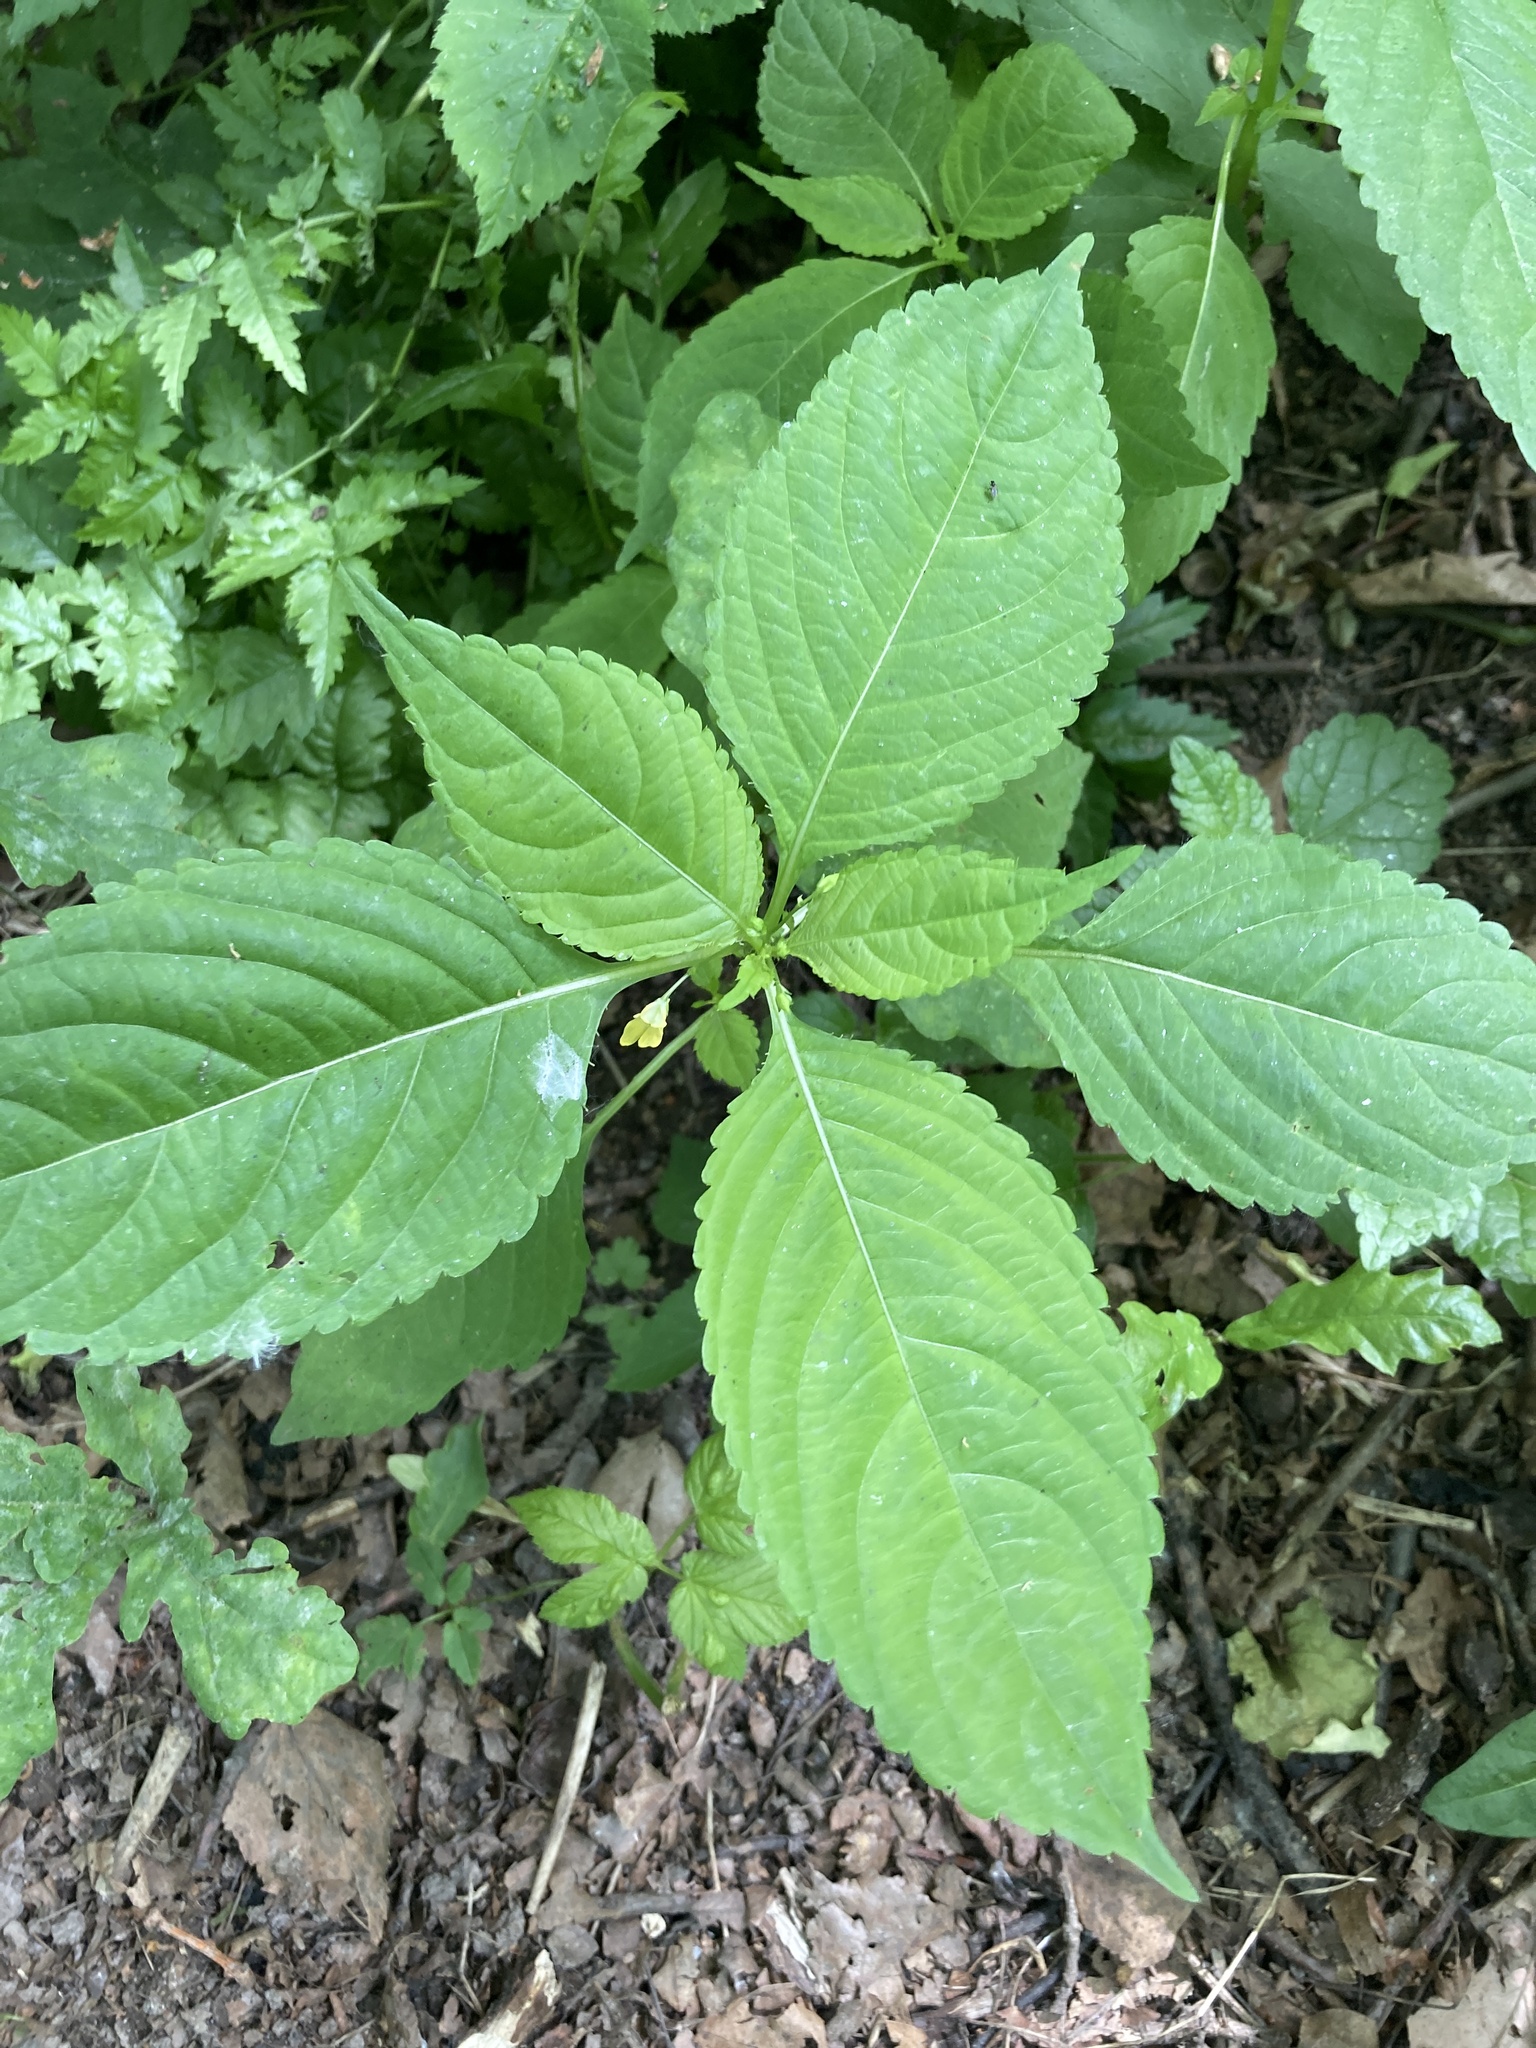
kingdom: Plantae
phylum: Tracheophyta
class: Magnoliopsida
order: Ericales
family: Balsaminaceae
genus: Impatiens
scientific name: Impatiens parviflora
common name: Small balsam
